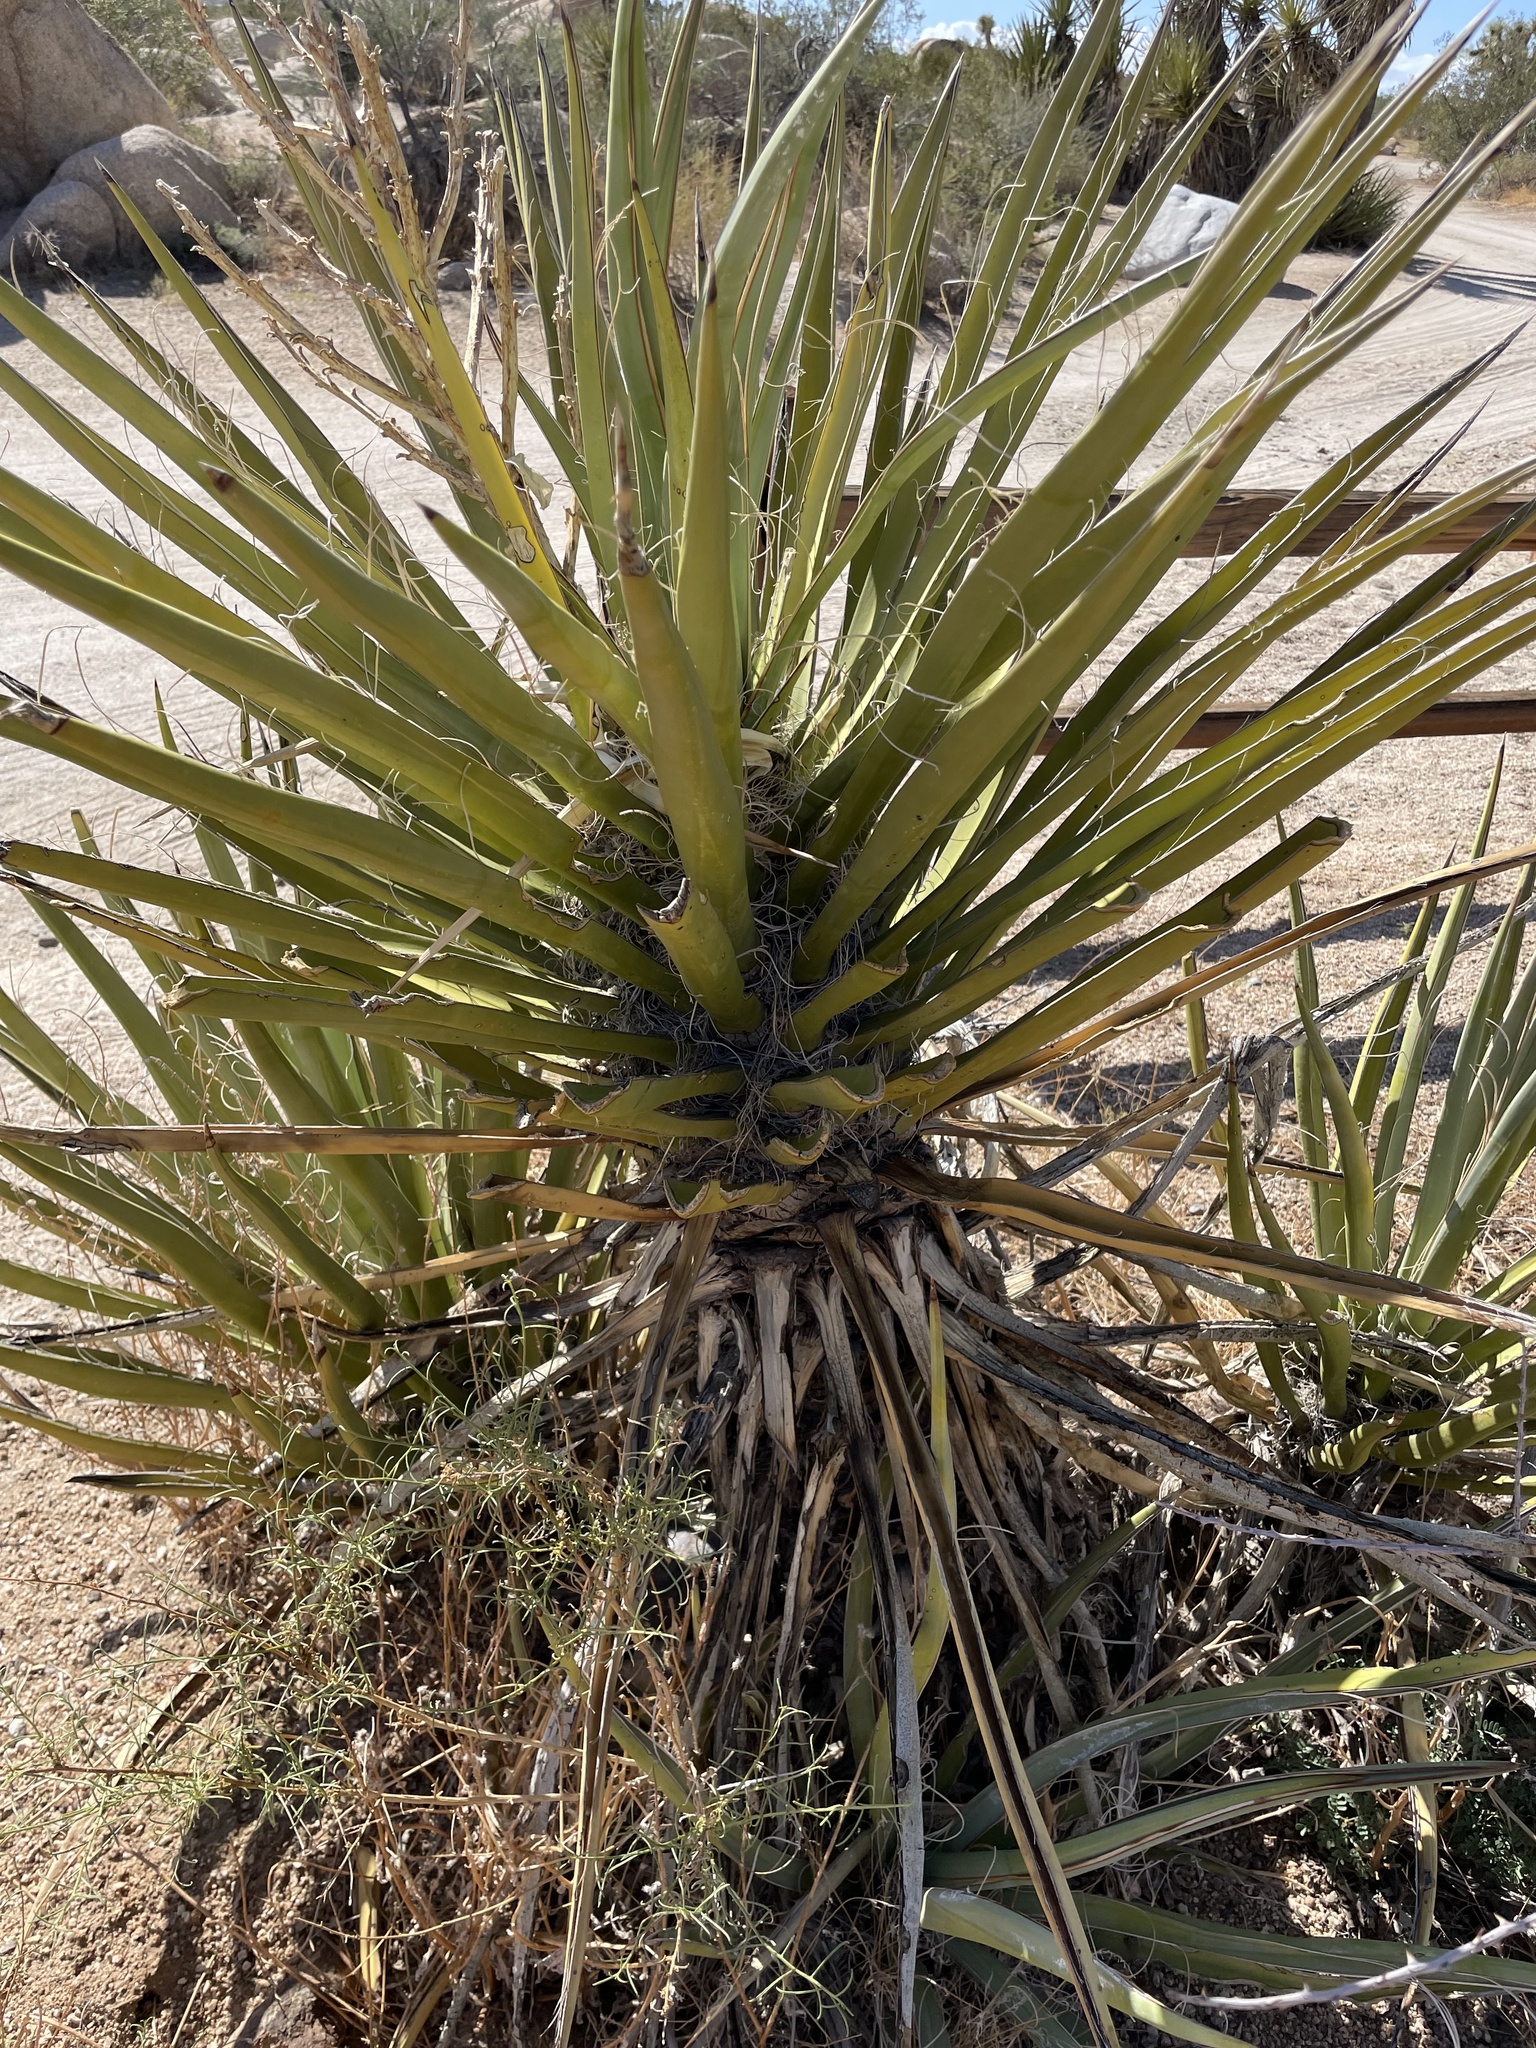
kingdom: Plantae
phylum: Tracheophyta
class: Liliopsida
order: Asparagales
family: Asparagaceae
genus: Yucca
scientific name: Yucca schidigera
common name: Mojave yucca
